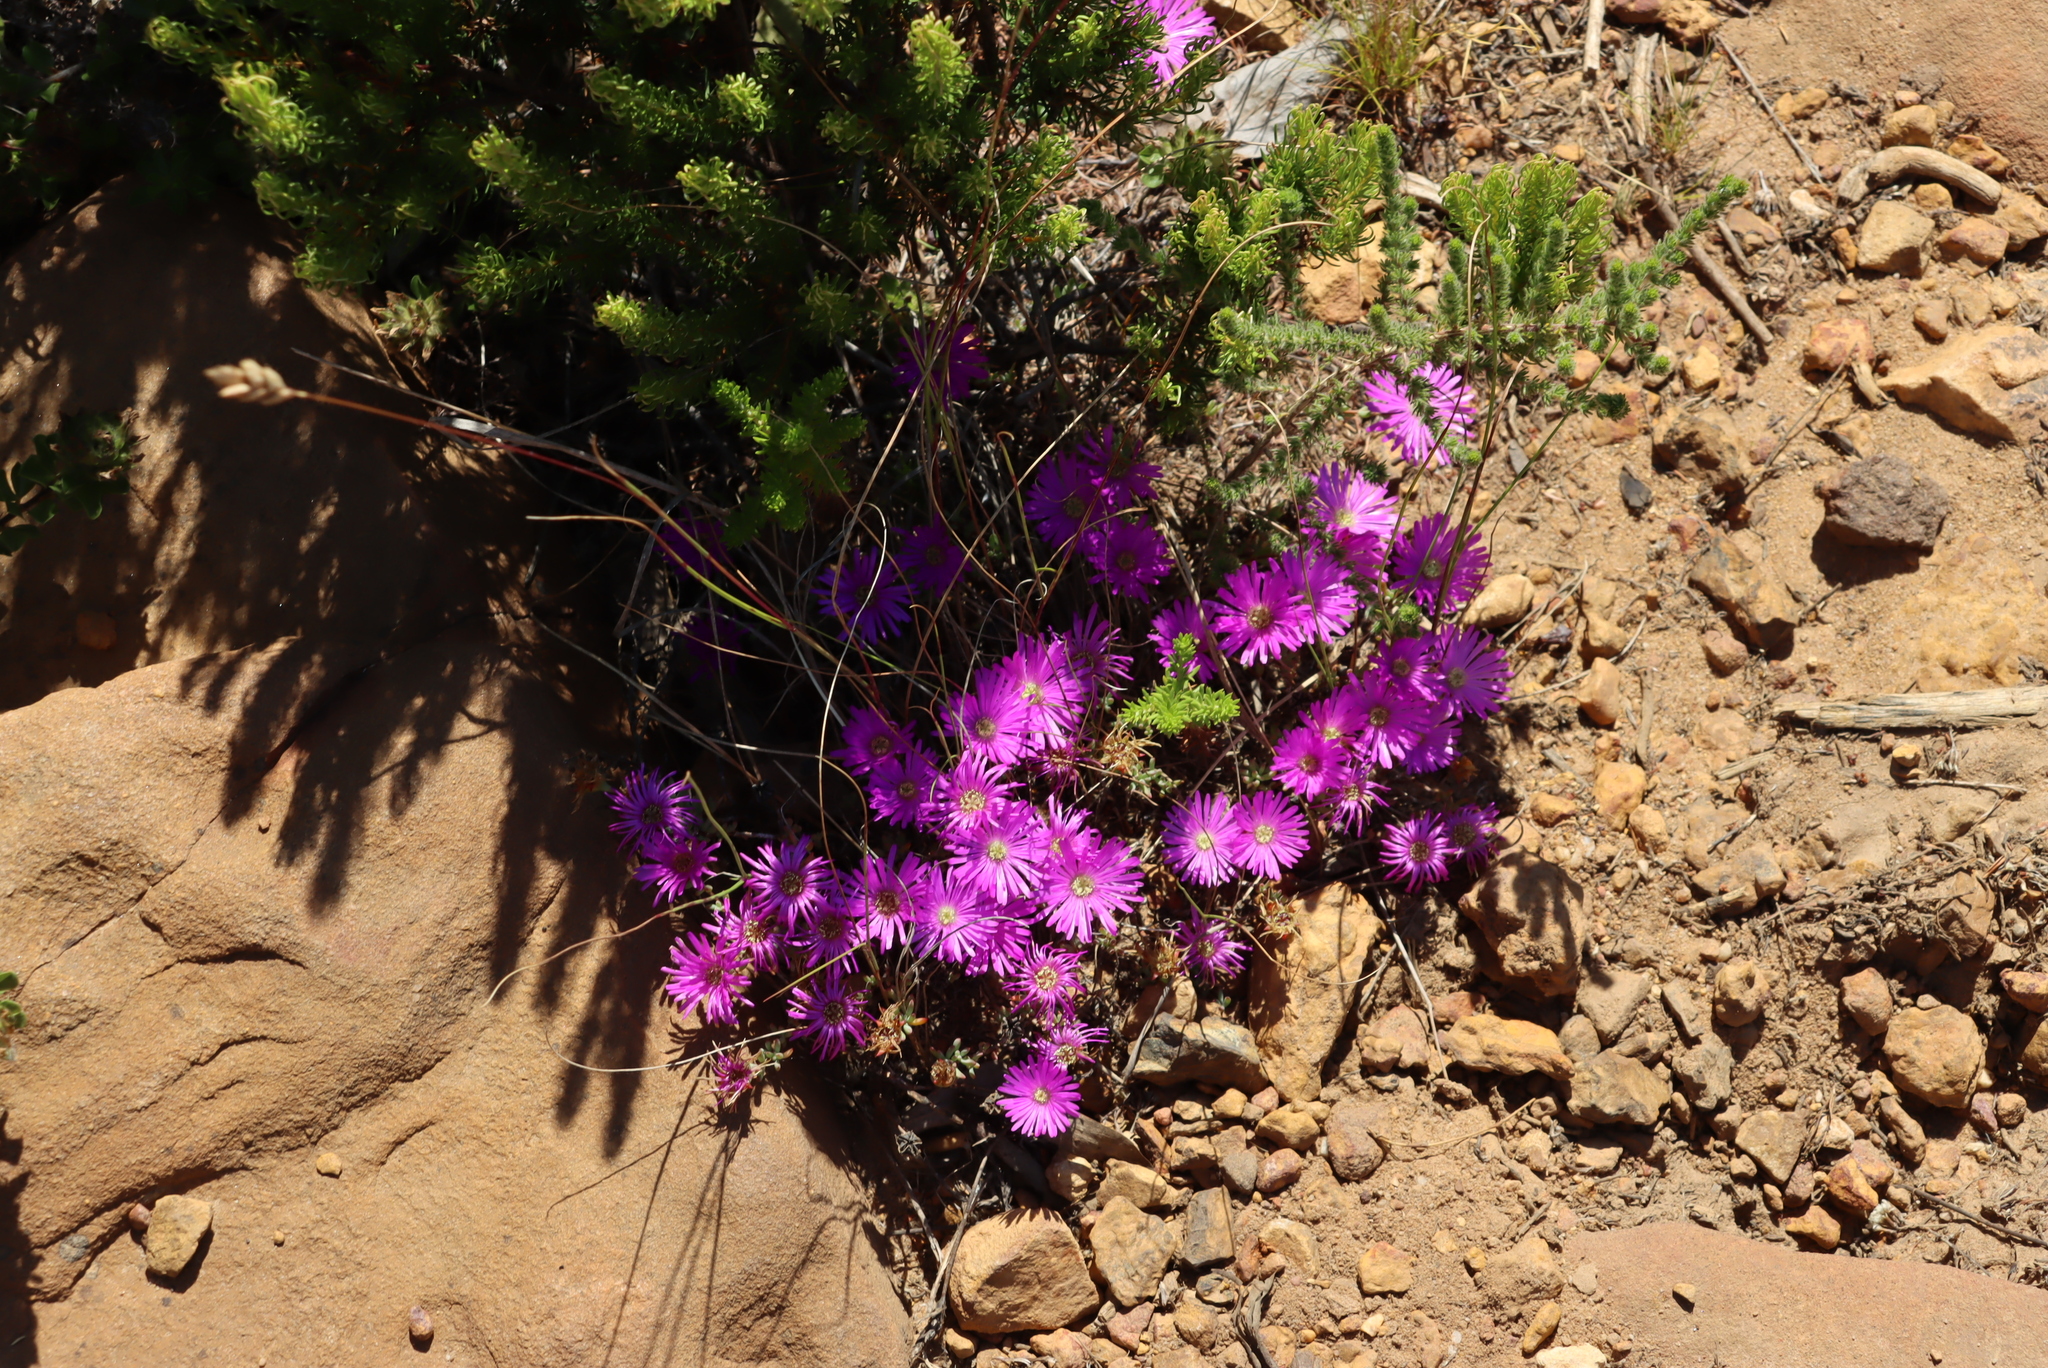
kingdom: Plantae
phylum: Tracheophyta
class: Magnoliopsida
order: Caryophyllales
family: Aizoaceae
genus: Oscularia
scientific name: Oscularia falciformis
